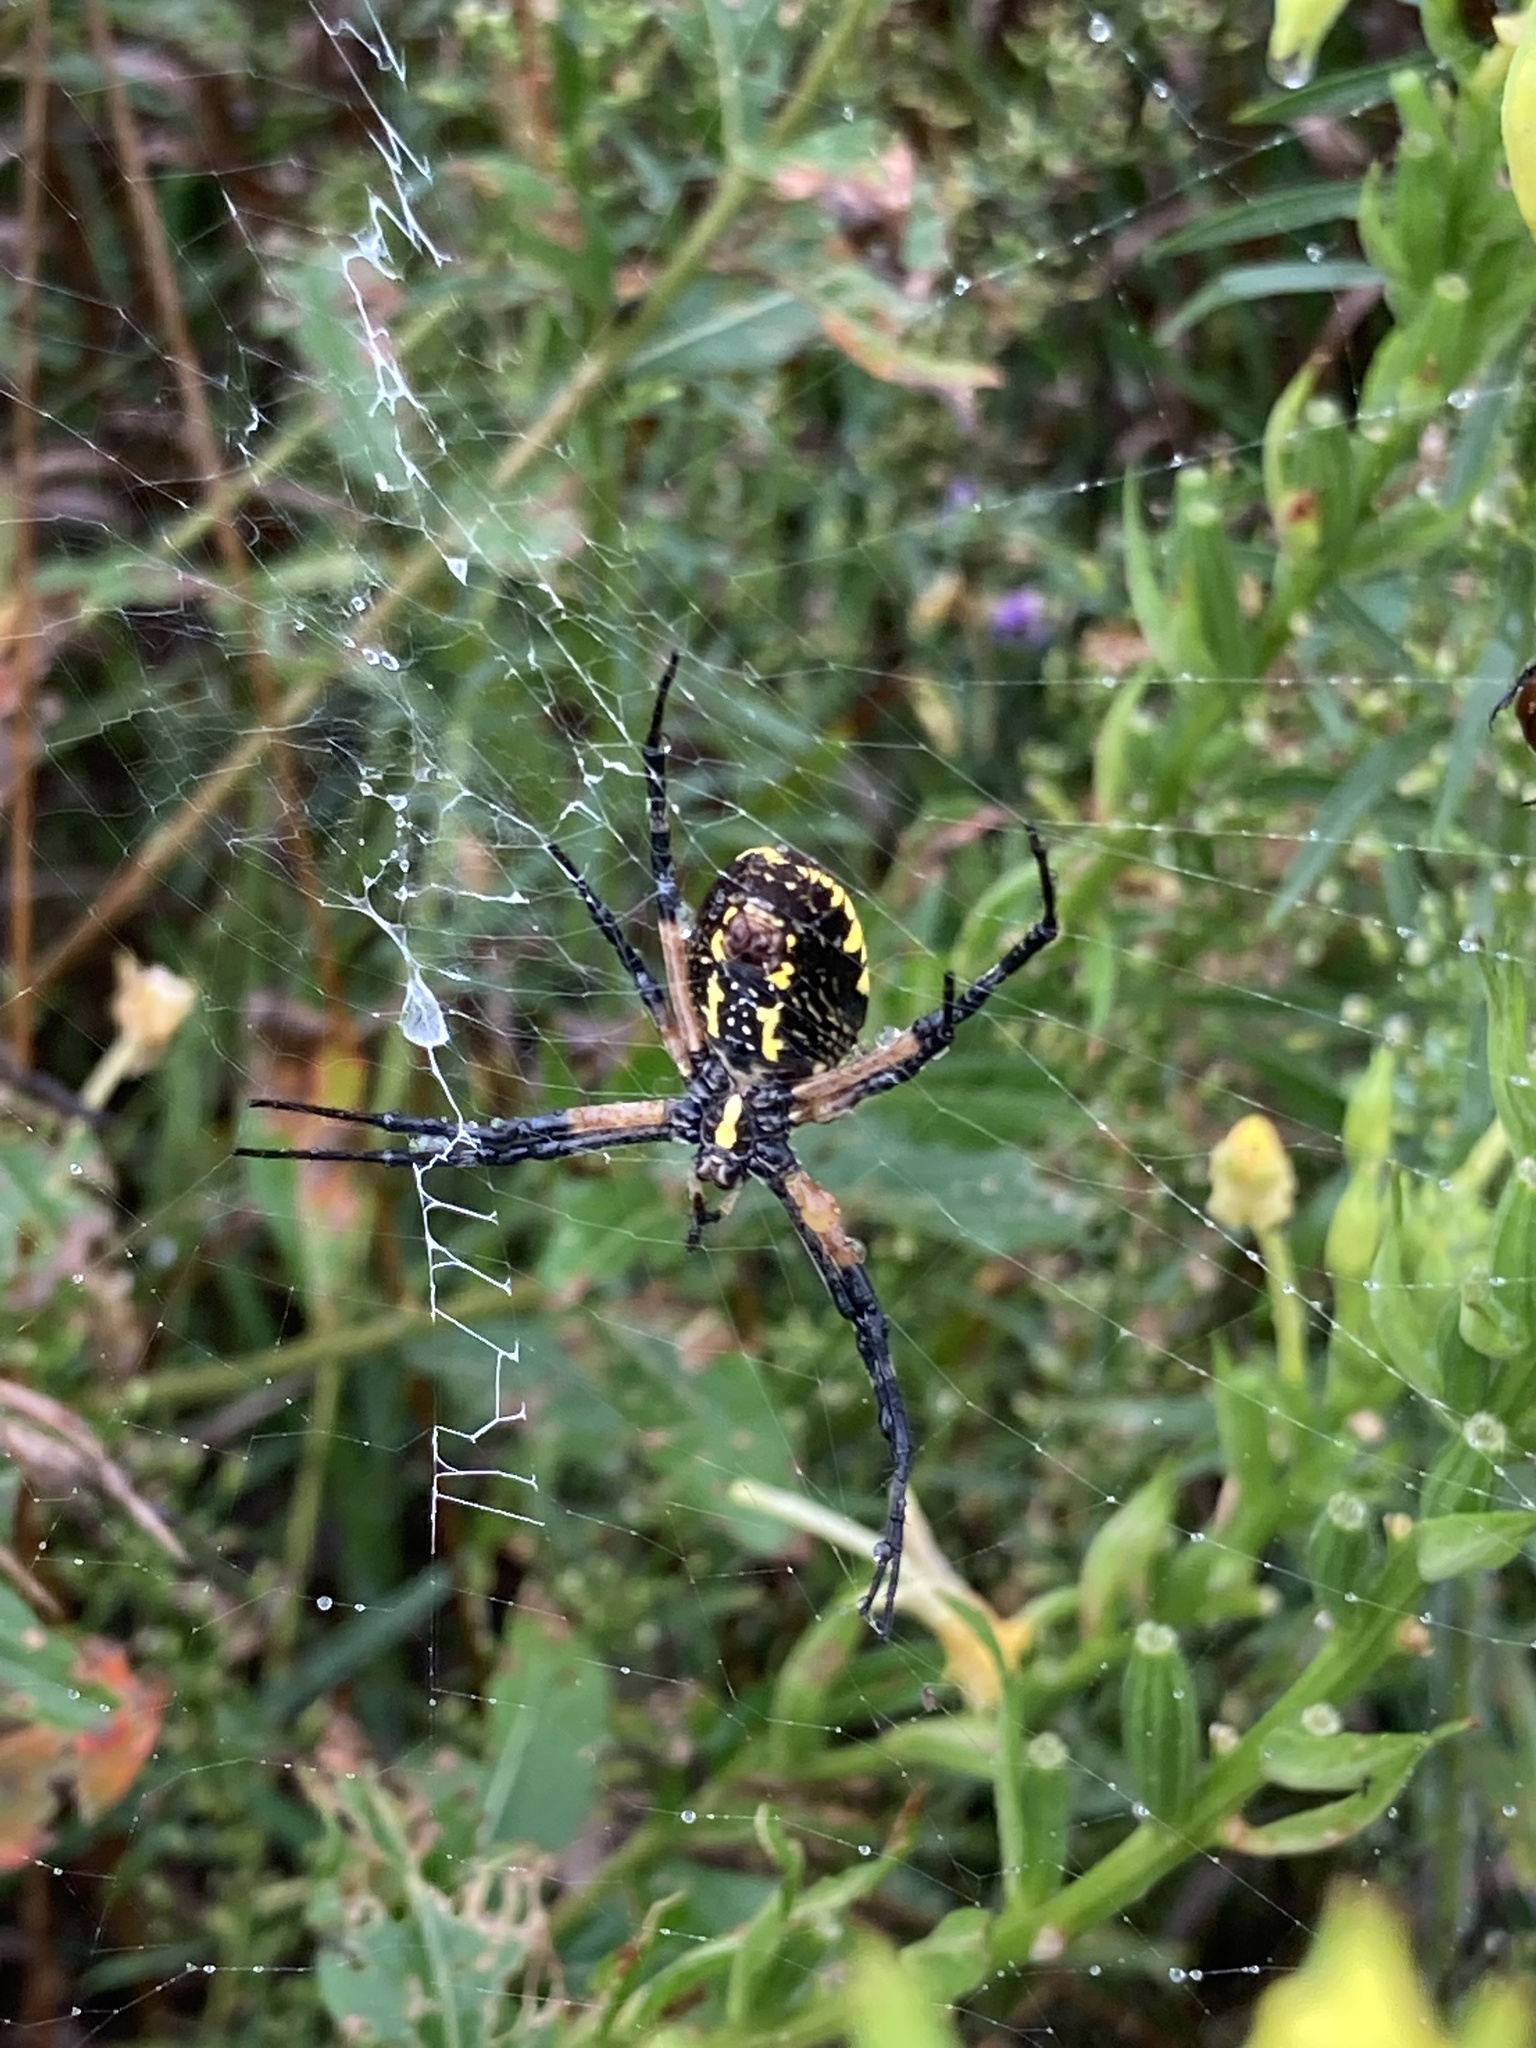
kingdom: Animalia
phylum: Arthropoda
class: Arachnida
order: Araneae
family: Araneidae
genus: Argiope
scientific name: Argiope aurantia
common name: Orb weavers
